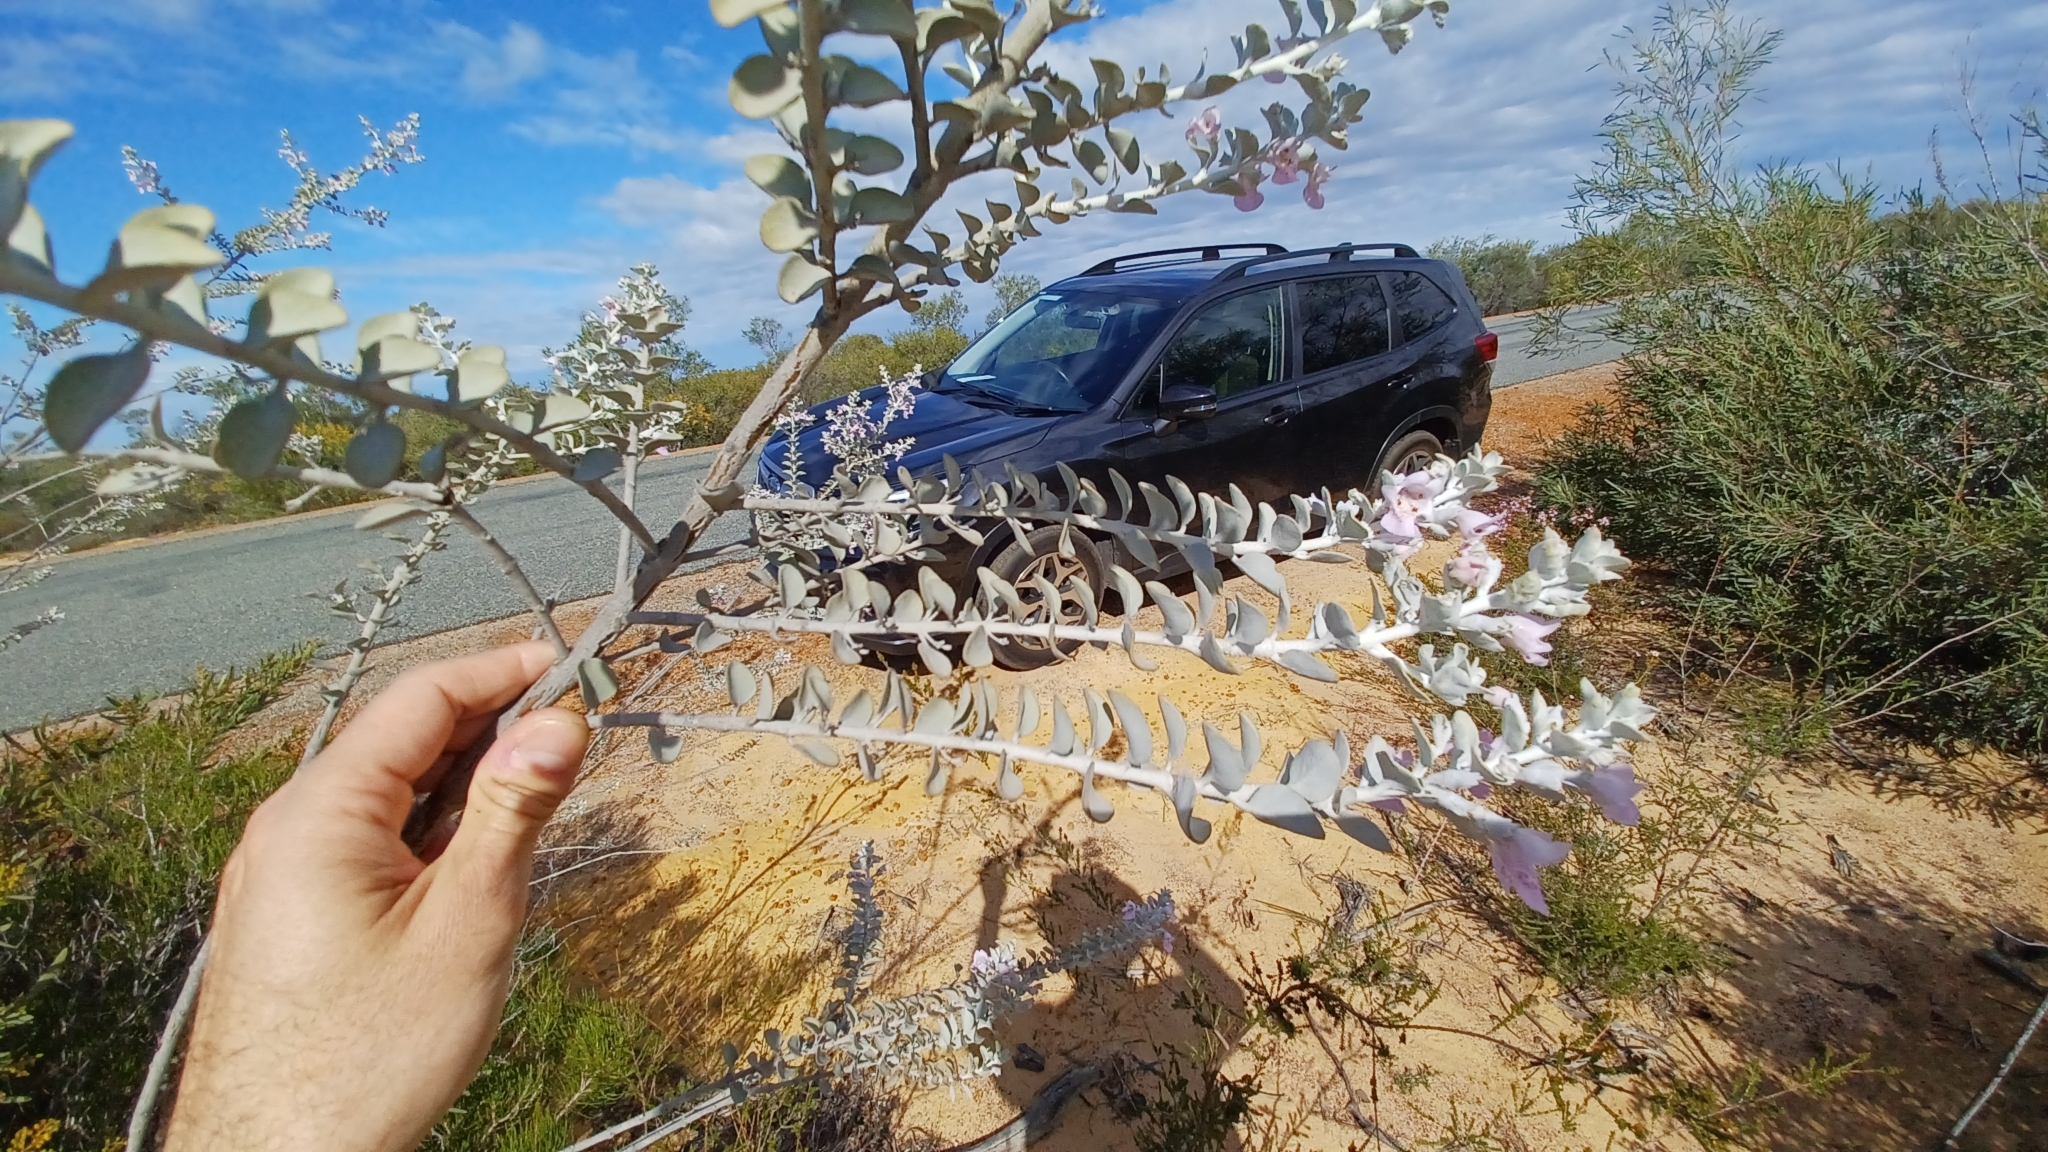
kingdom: Plantae
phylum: Tracheophyta
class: Magnoliopsida
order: Lamiales
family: Lamiaceae
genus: Quoya
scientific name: Quoya atriplicina
